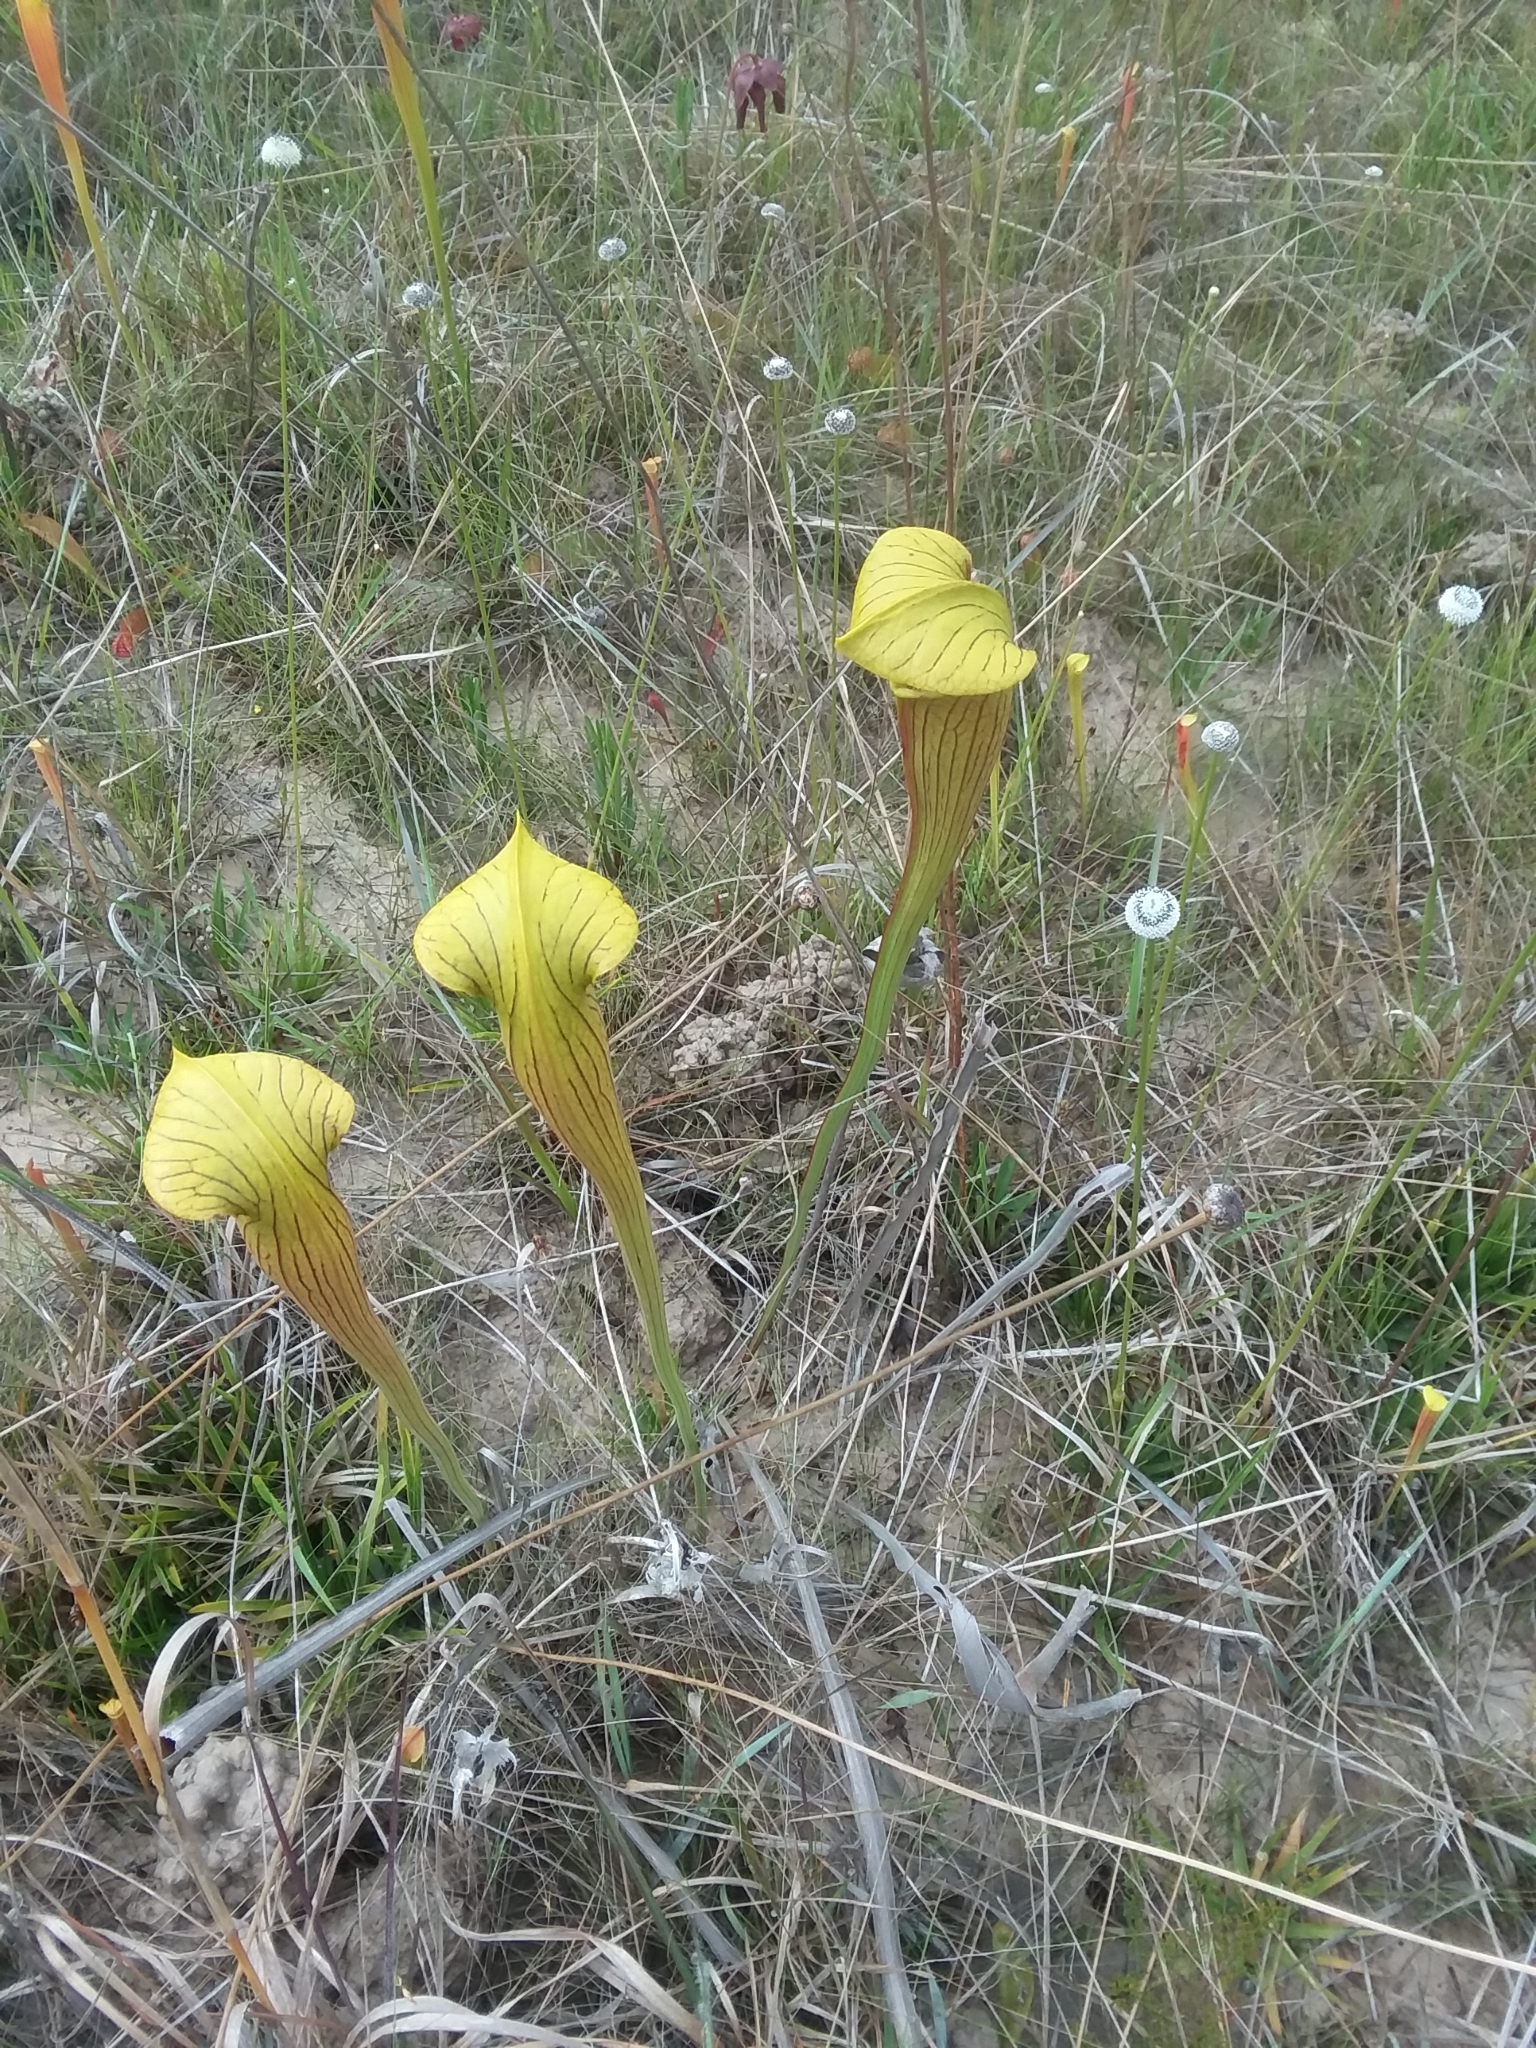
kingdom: Plantae
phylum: Tracheophyta
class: Magnoliopsida
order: Ericales
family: Sarraceniaceae
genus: Sarracenia
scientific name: Sarracenia alata
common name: Yellow trumpets
